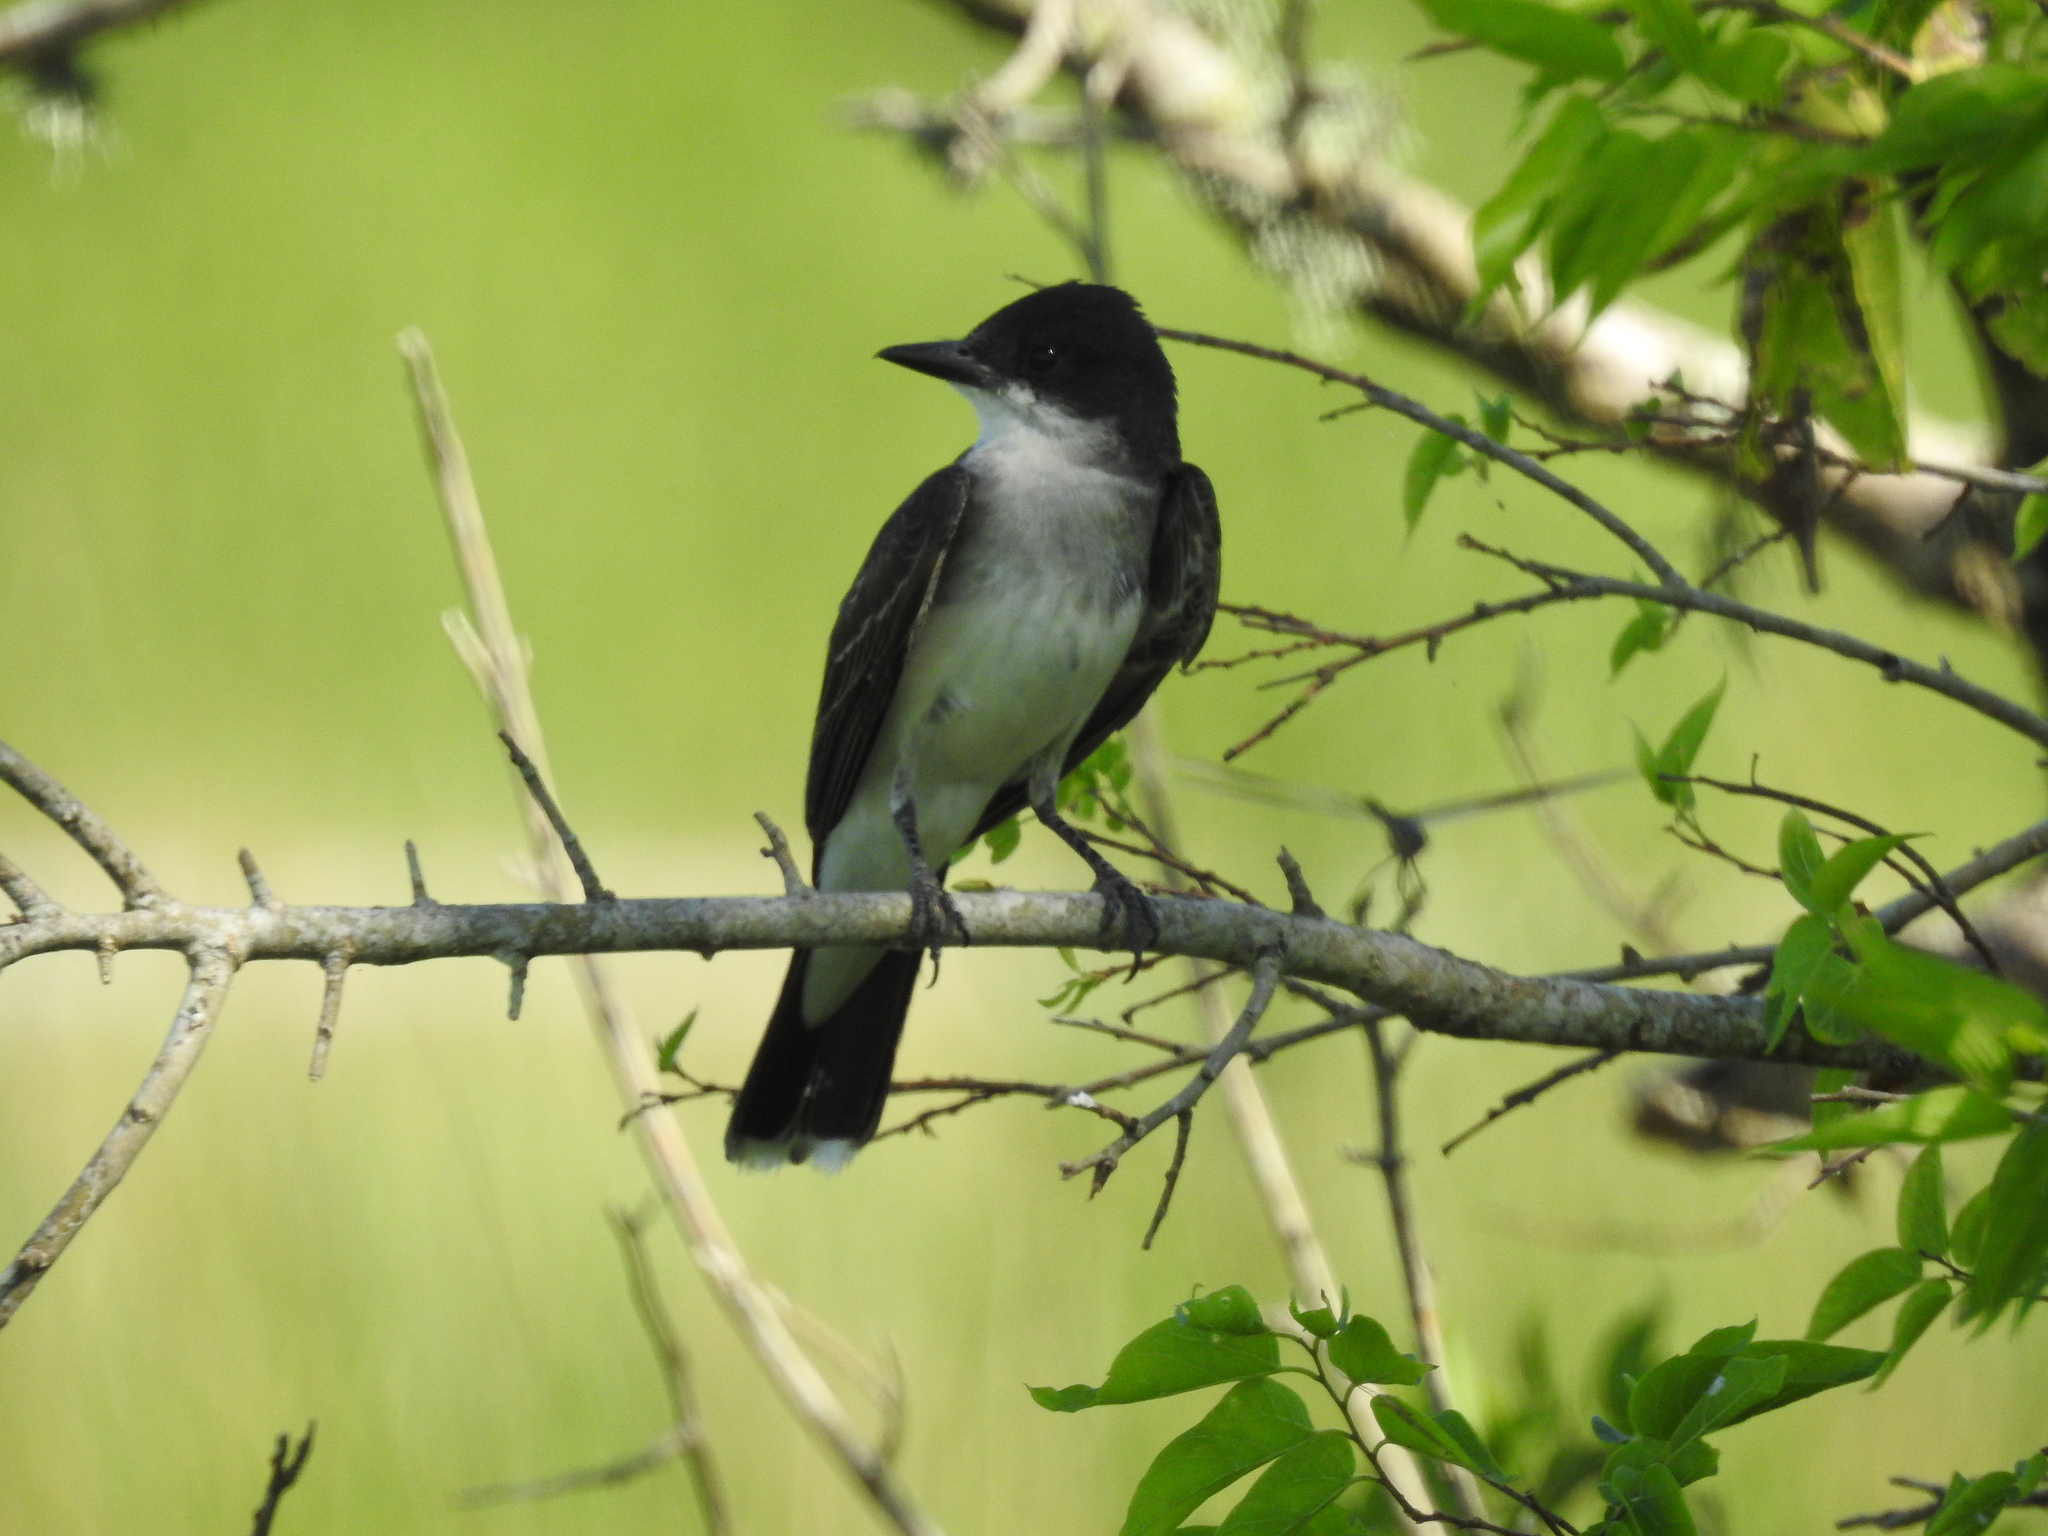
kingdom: Animalia
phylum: Chordata
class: Aves
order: Passeriformes
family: Tyrannidae
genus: Tyrannus
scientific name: Tyrannus tyrannus
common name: Eastern kingbird
